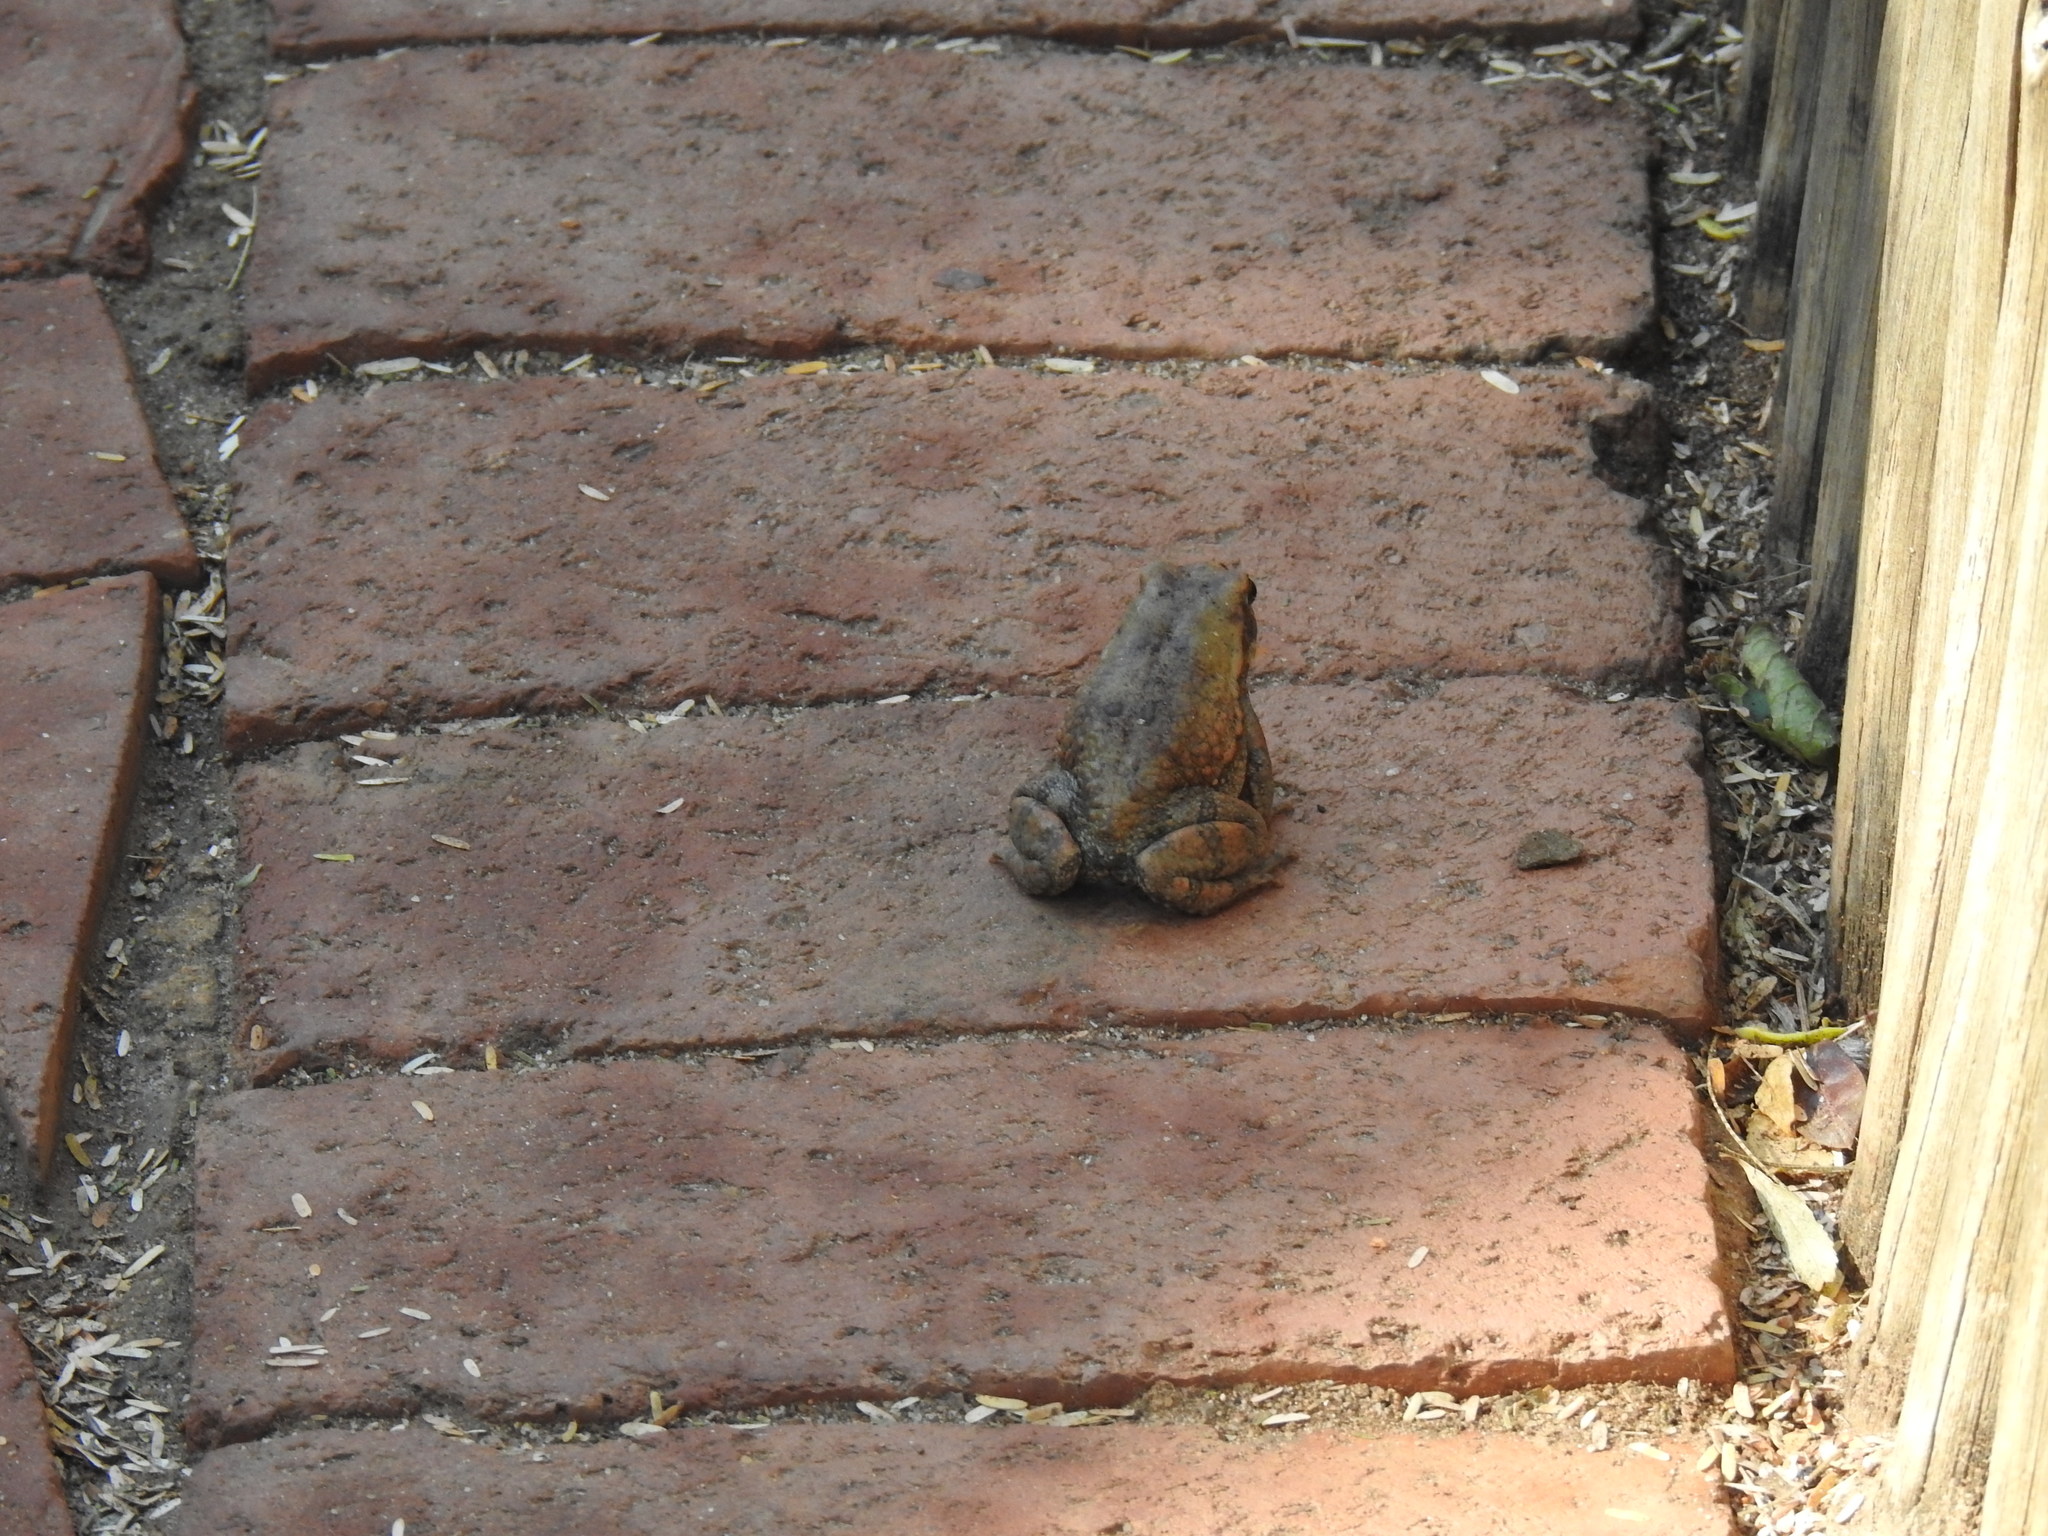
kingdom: Animalia
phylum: Chordata
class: Amphibia
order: Anura
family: Bufonidae
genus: Schismaderma
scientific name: Schismaderma carens
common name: African split-skin toad
